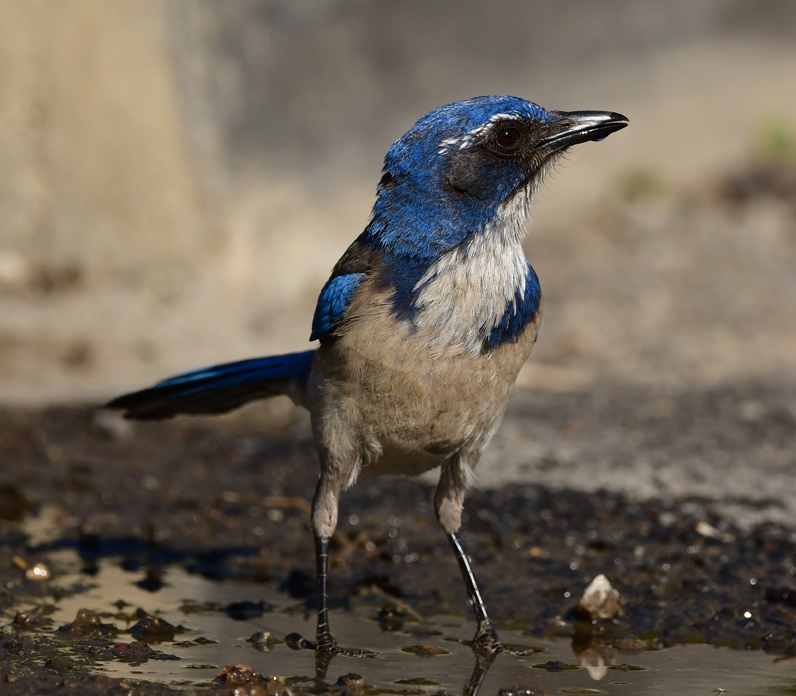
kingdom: Animalia
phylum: Chordata
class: Aves
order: Passeriformes
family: Corvidae
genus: Aphelocoma
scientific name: Aphelocoma californica
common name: California scrub-jay
